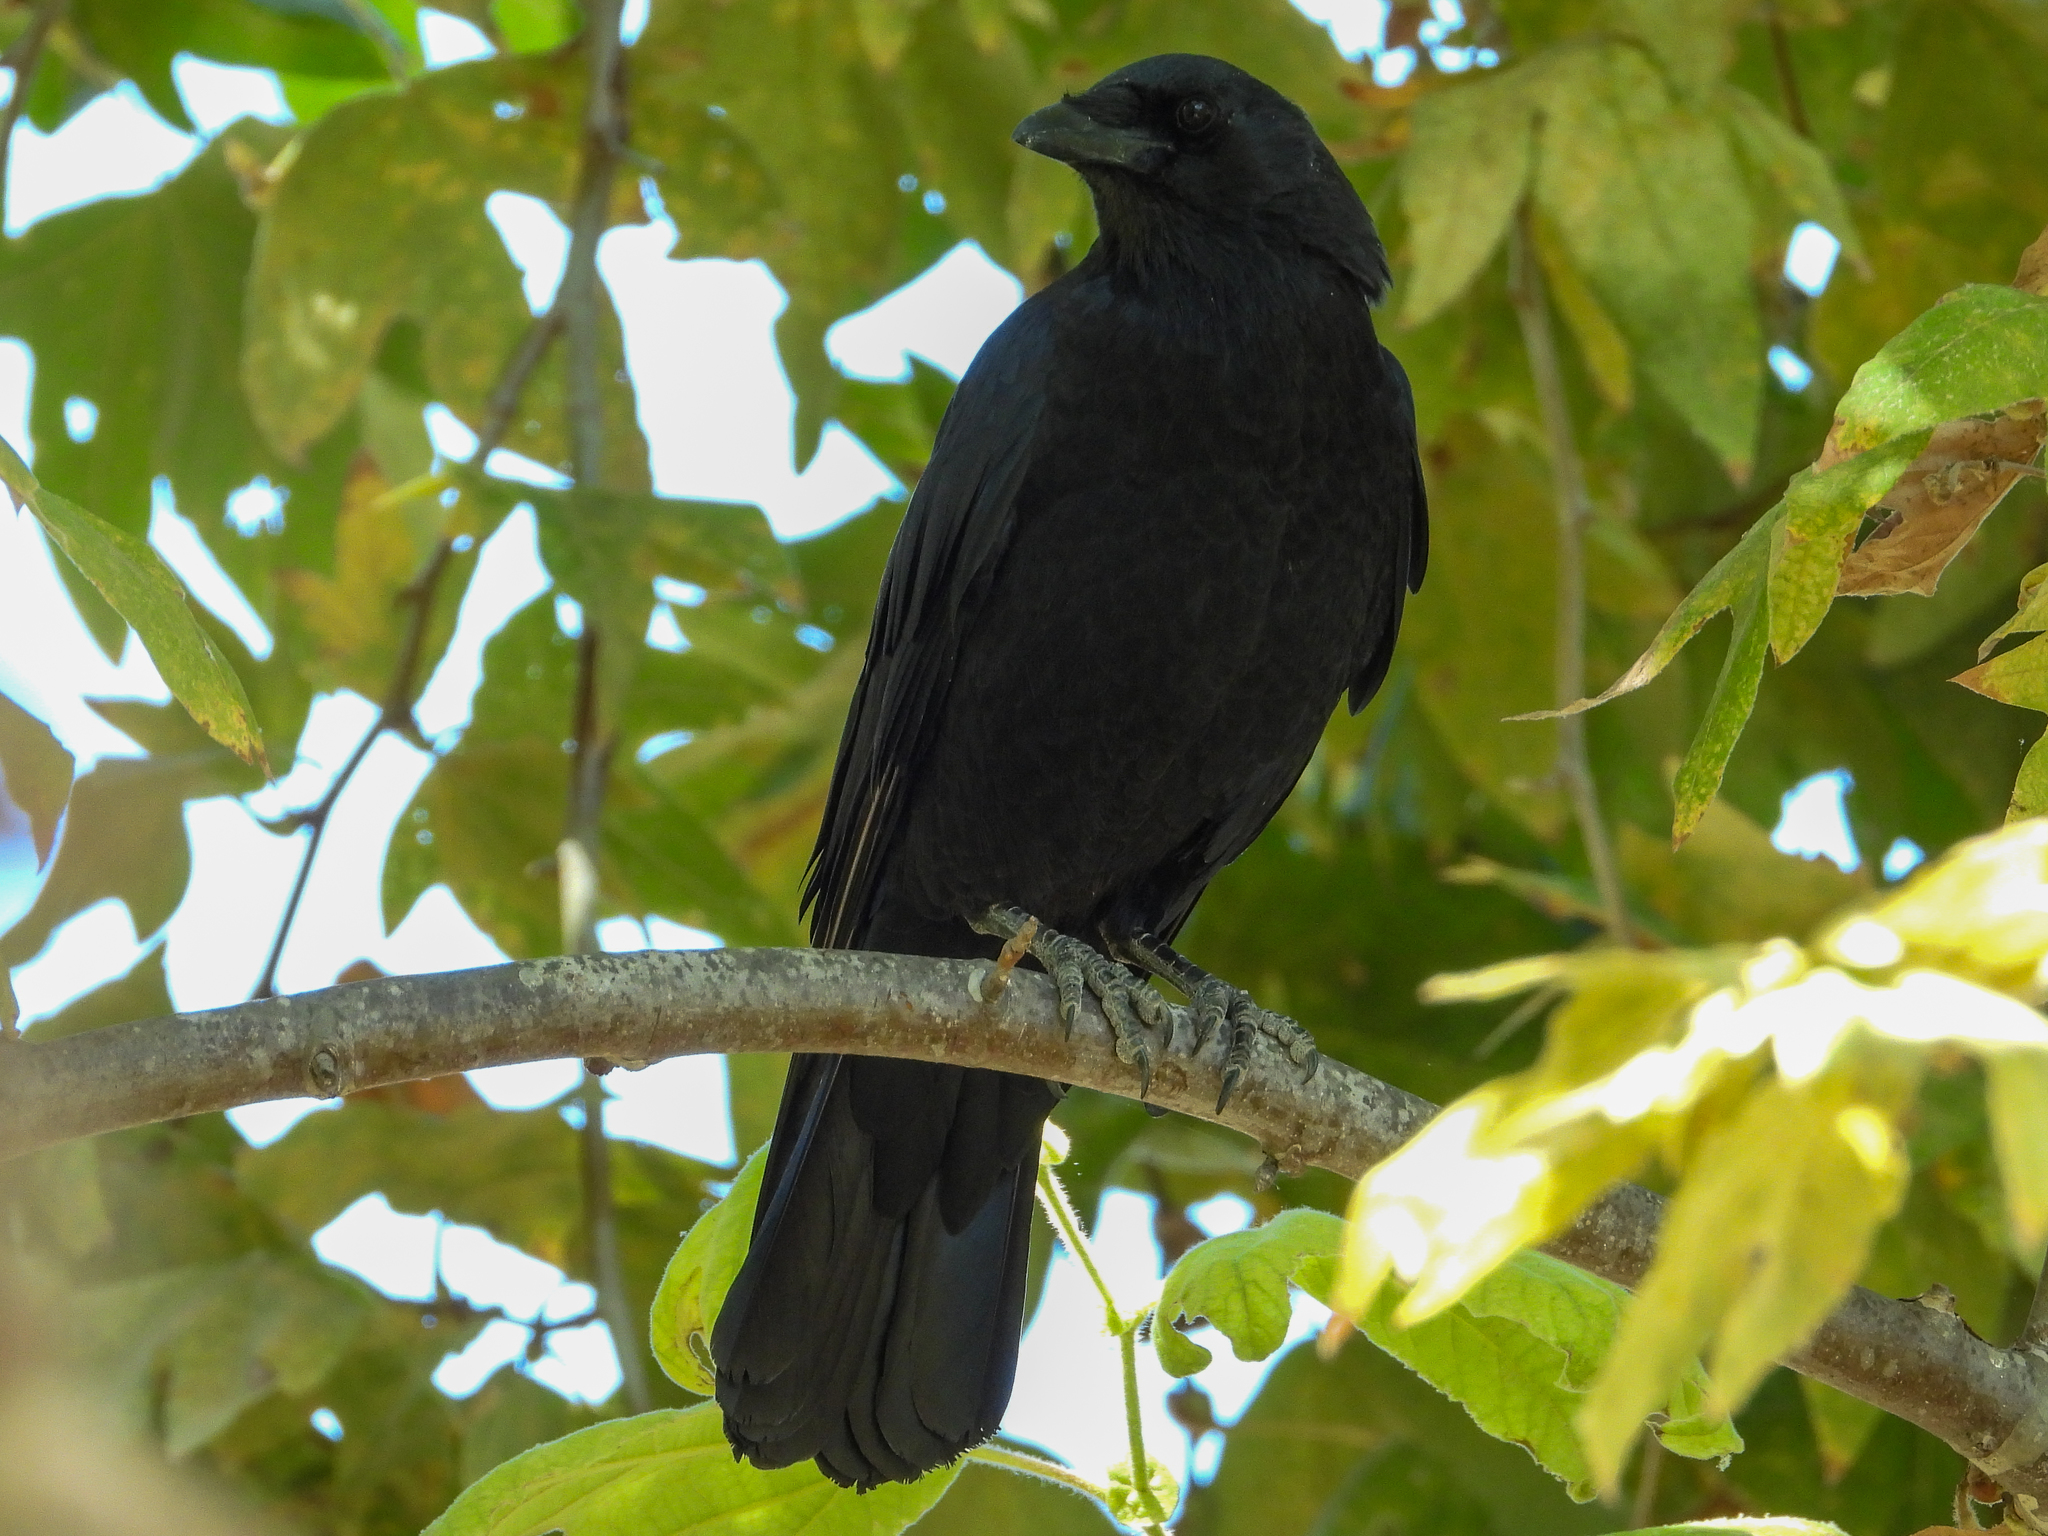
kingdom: Animalia
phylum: Chordata
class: Aves
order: Passeriformes
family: Corvidae
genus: Corvus
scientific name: Corvus brachyrhynchos
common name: American crow
